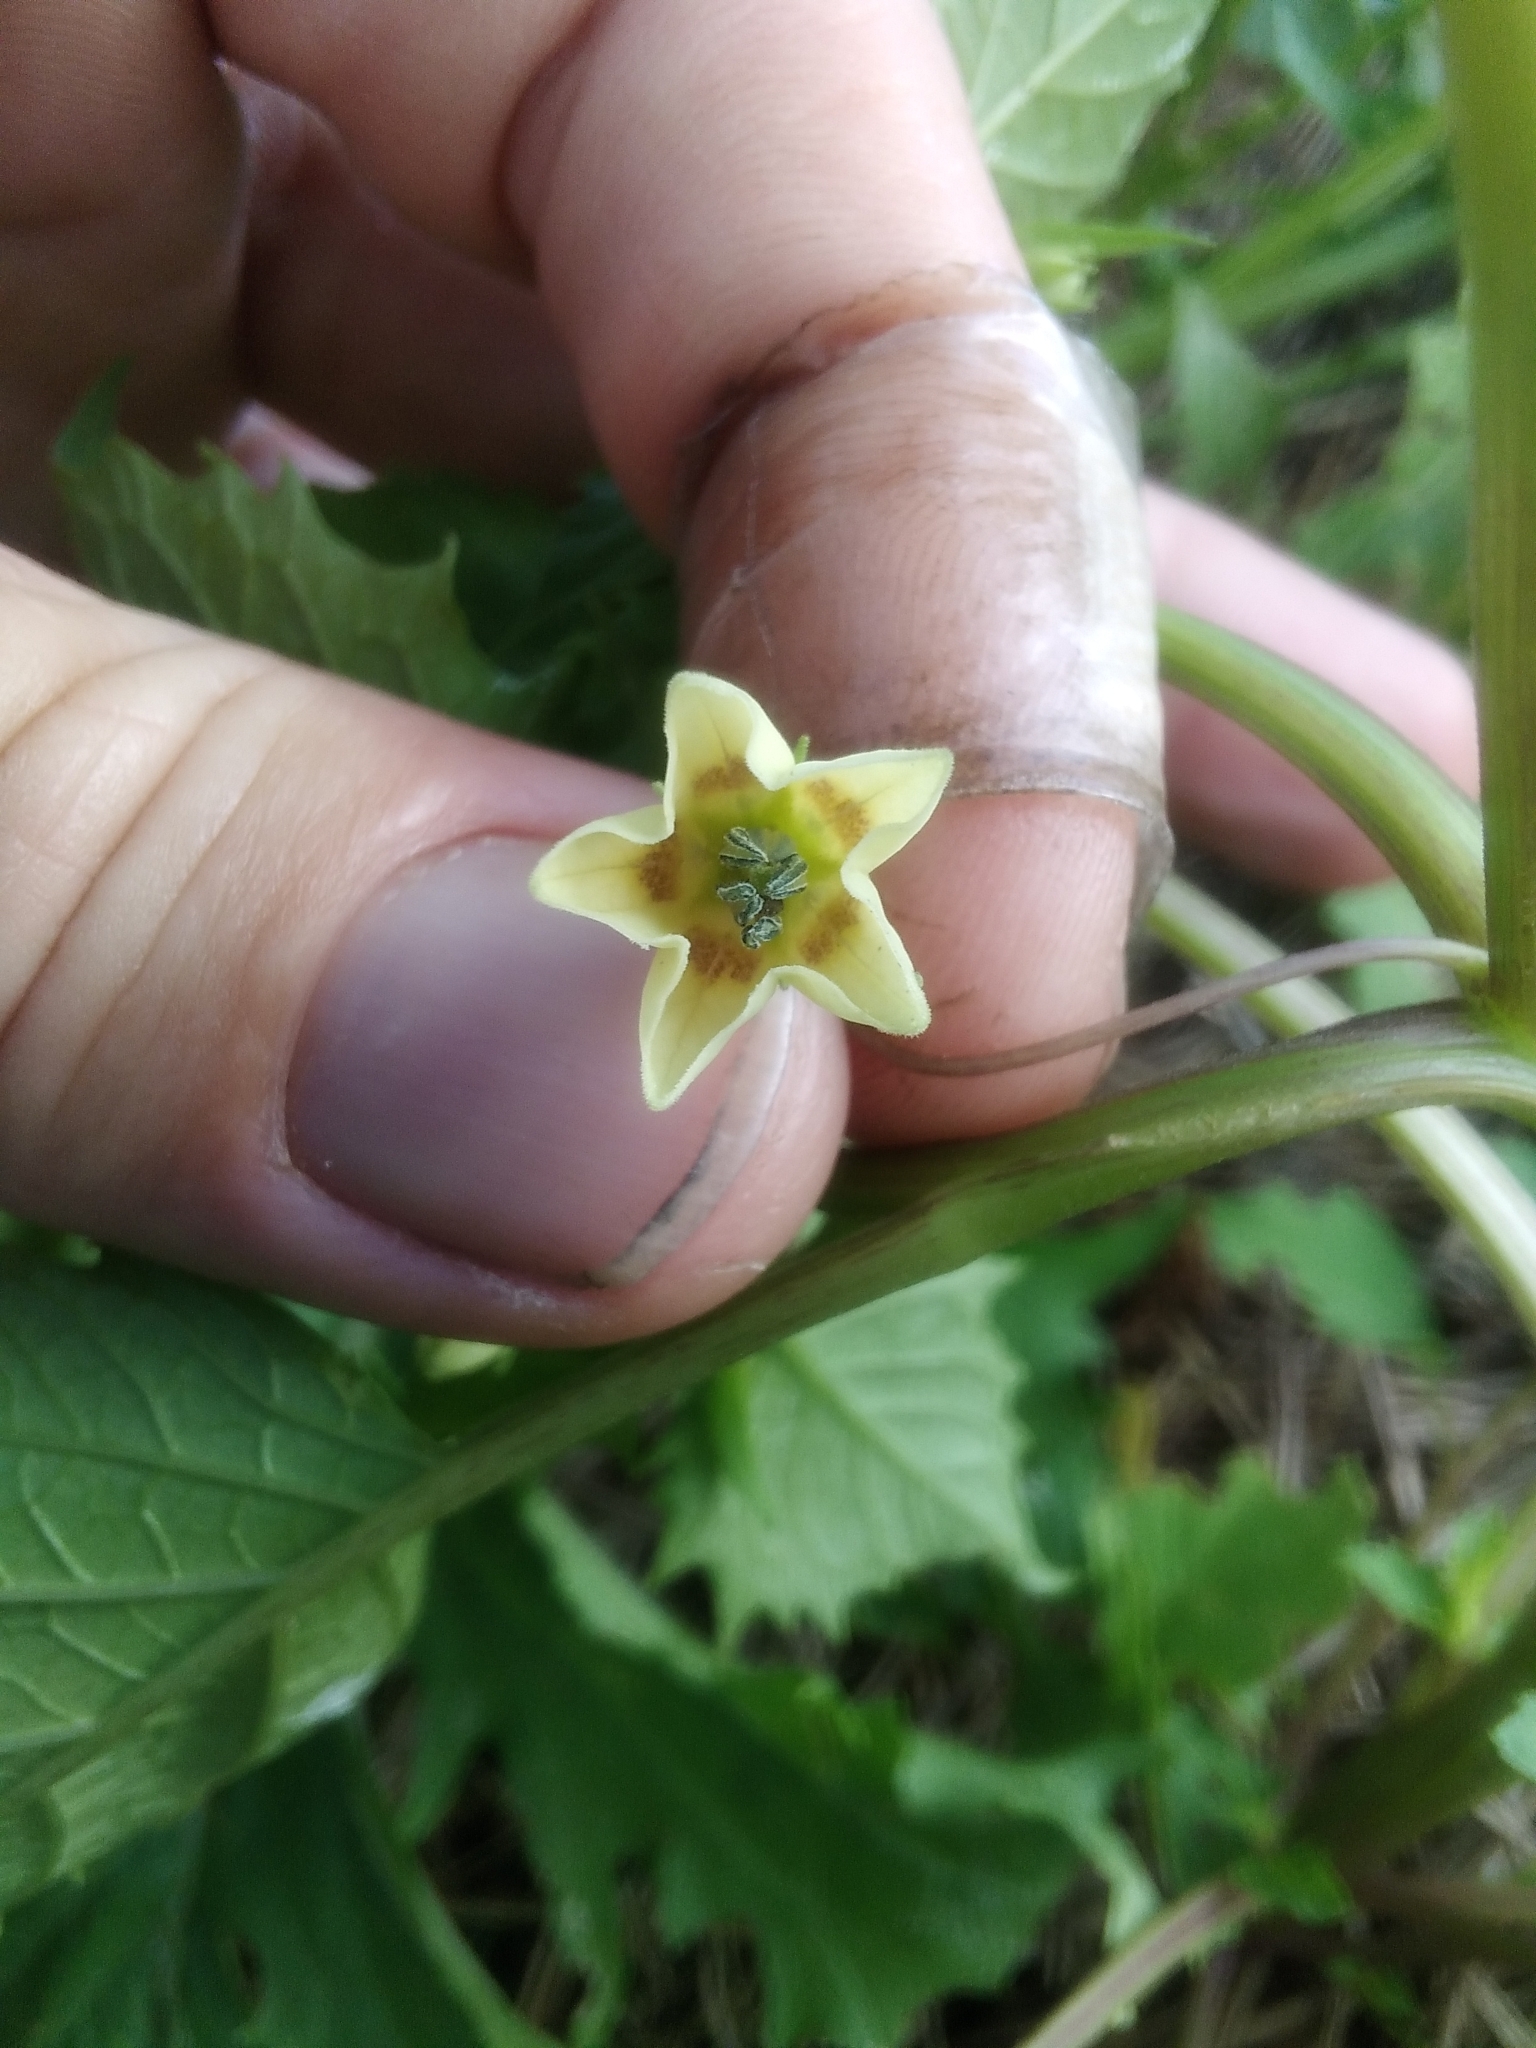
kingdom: Plantae
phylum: Tracheophyta
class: Magnoliopsida
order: Solanales
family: Solanaceae
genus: Physalis
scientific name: Physalis angulata
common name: Angular winter-cherry
